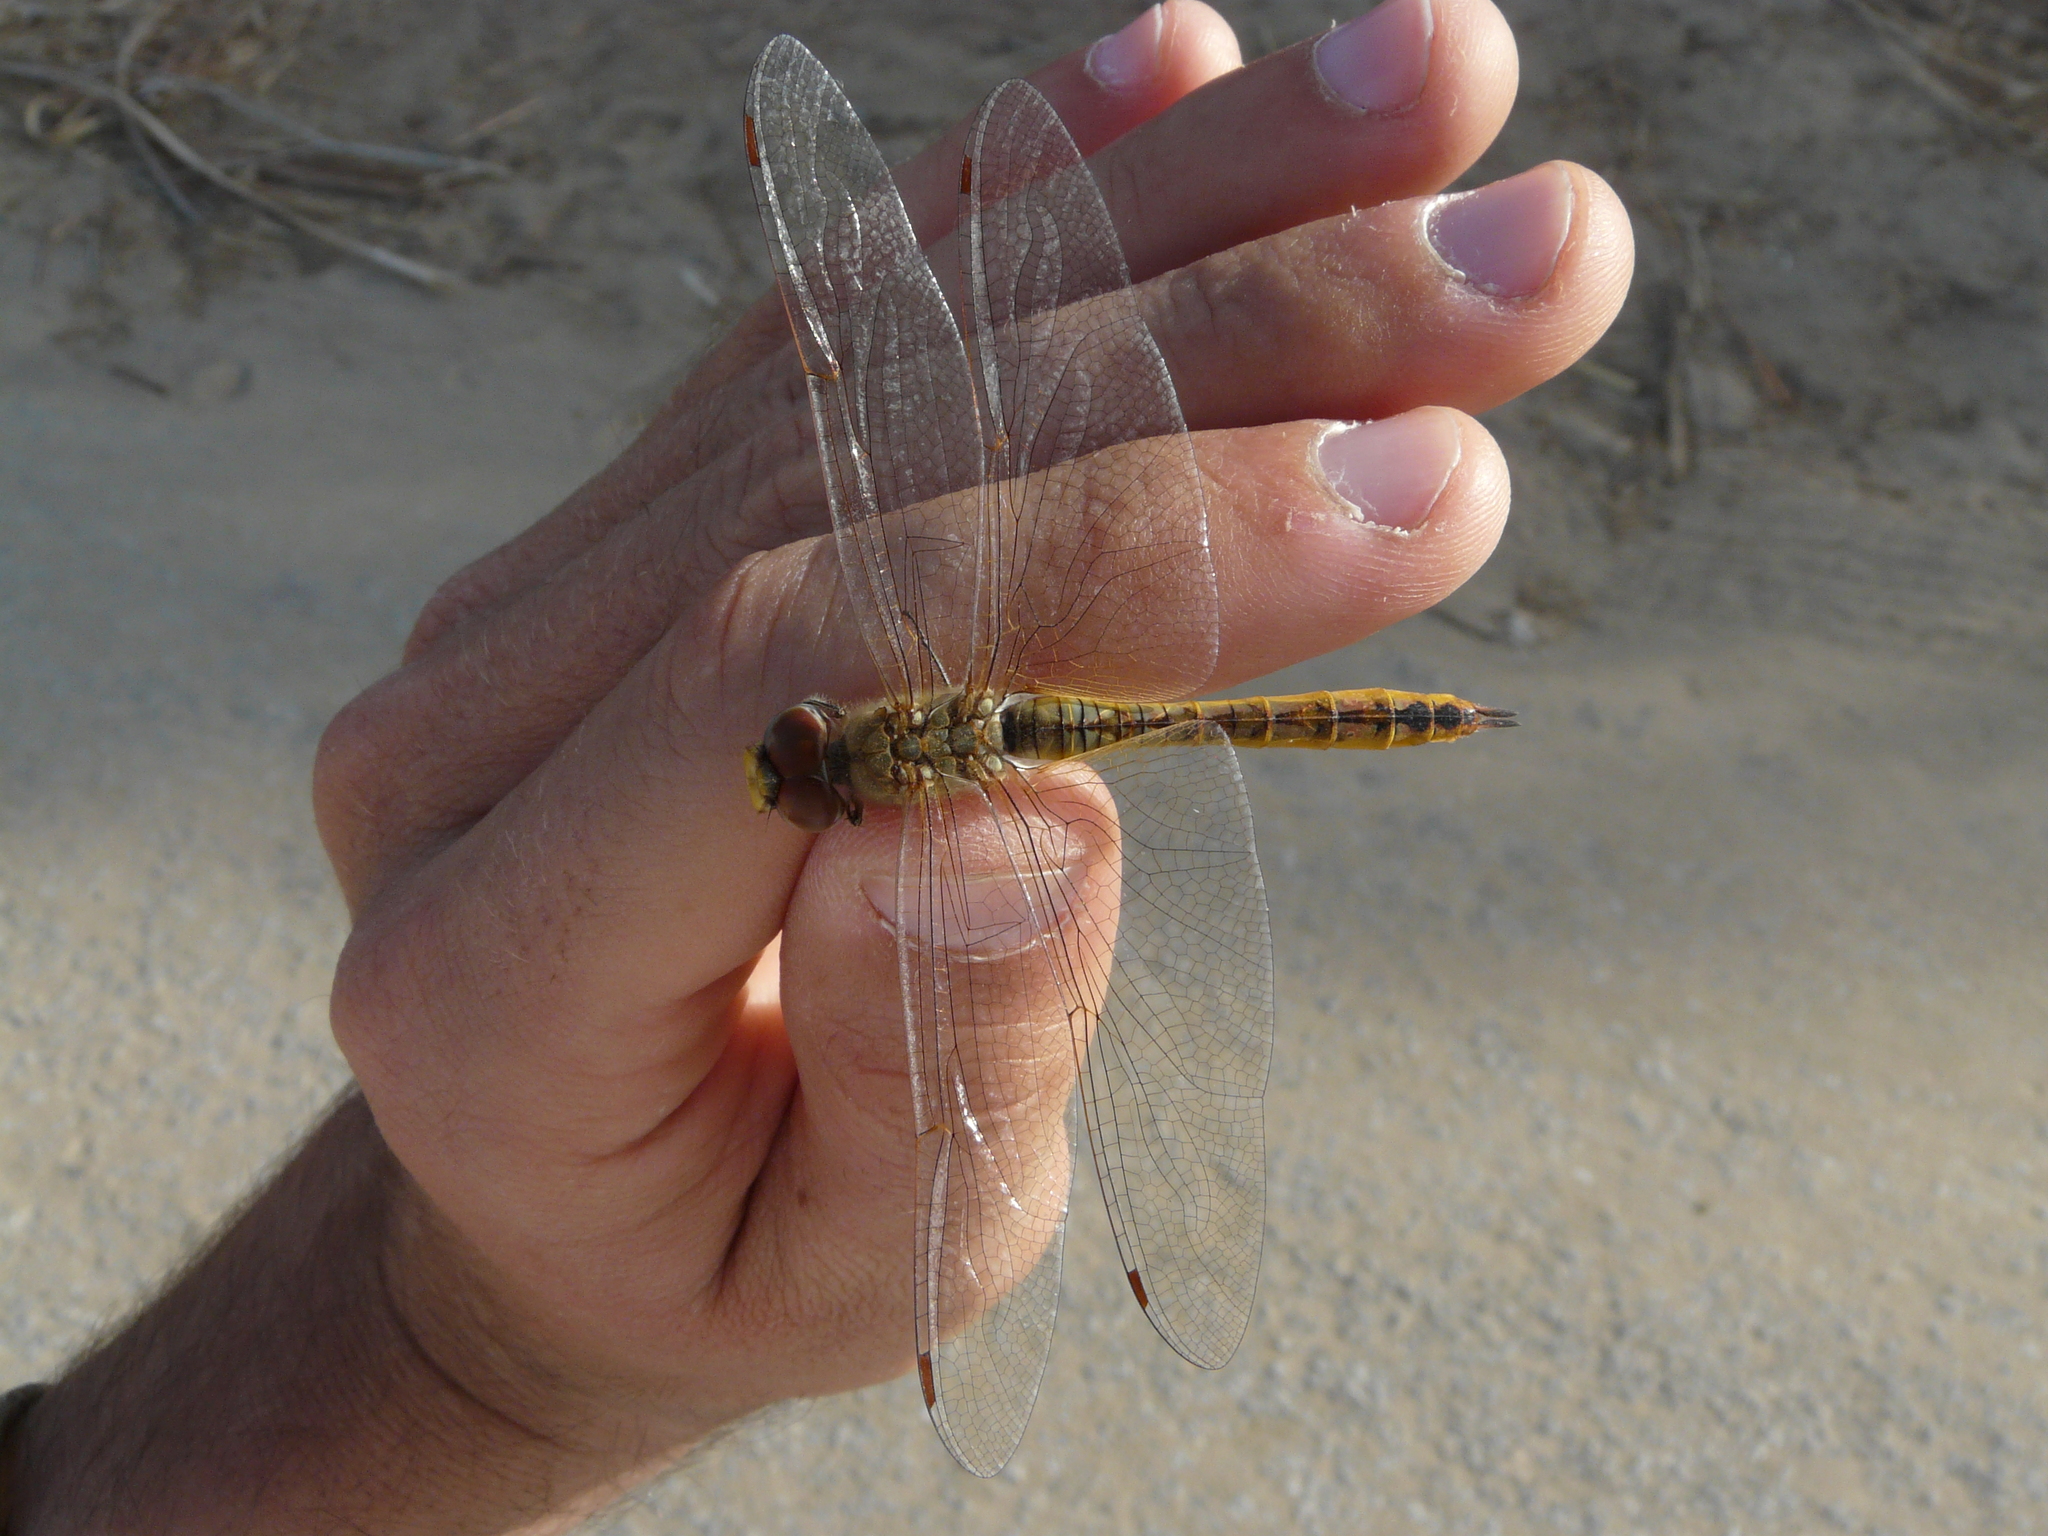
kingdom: Animalia
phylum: Arthropoda
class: Insecta
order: Odonata
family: Libellulidae
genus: Pantala
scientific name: Pantala flavescens
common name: Wandering glider
